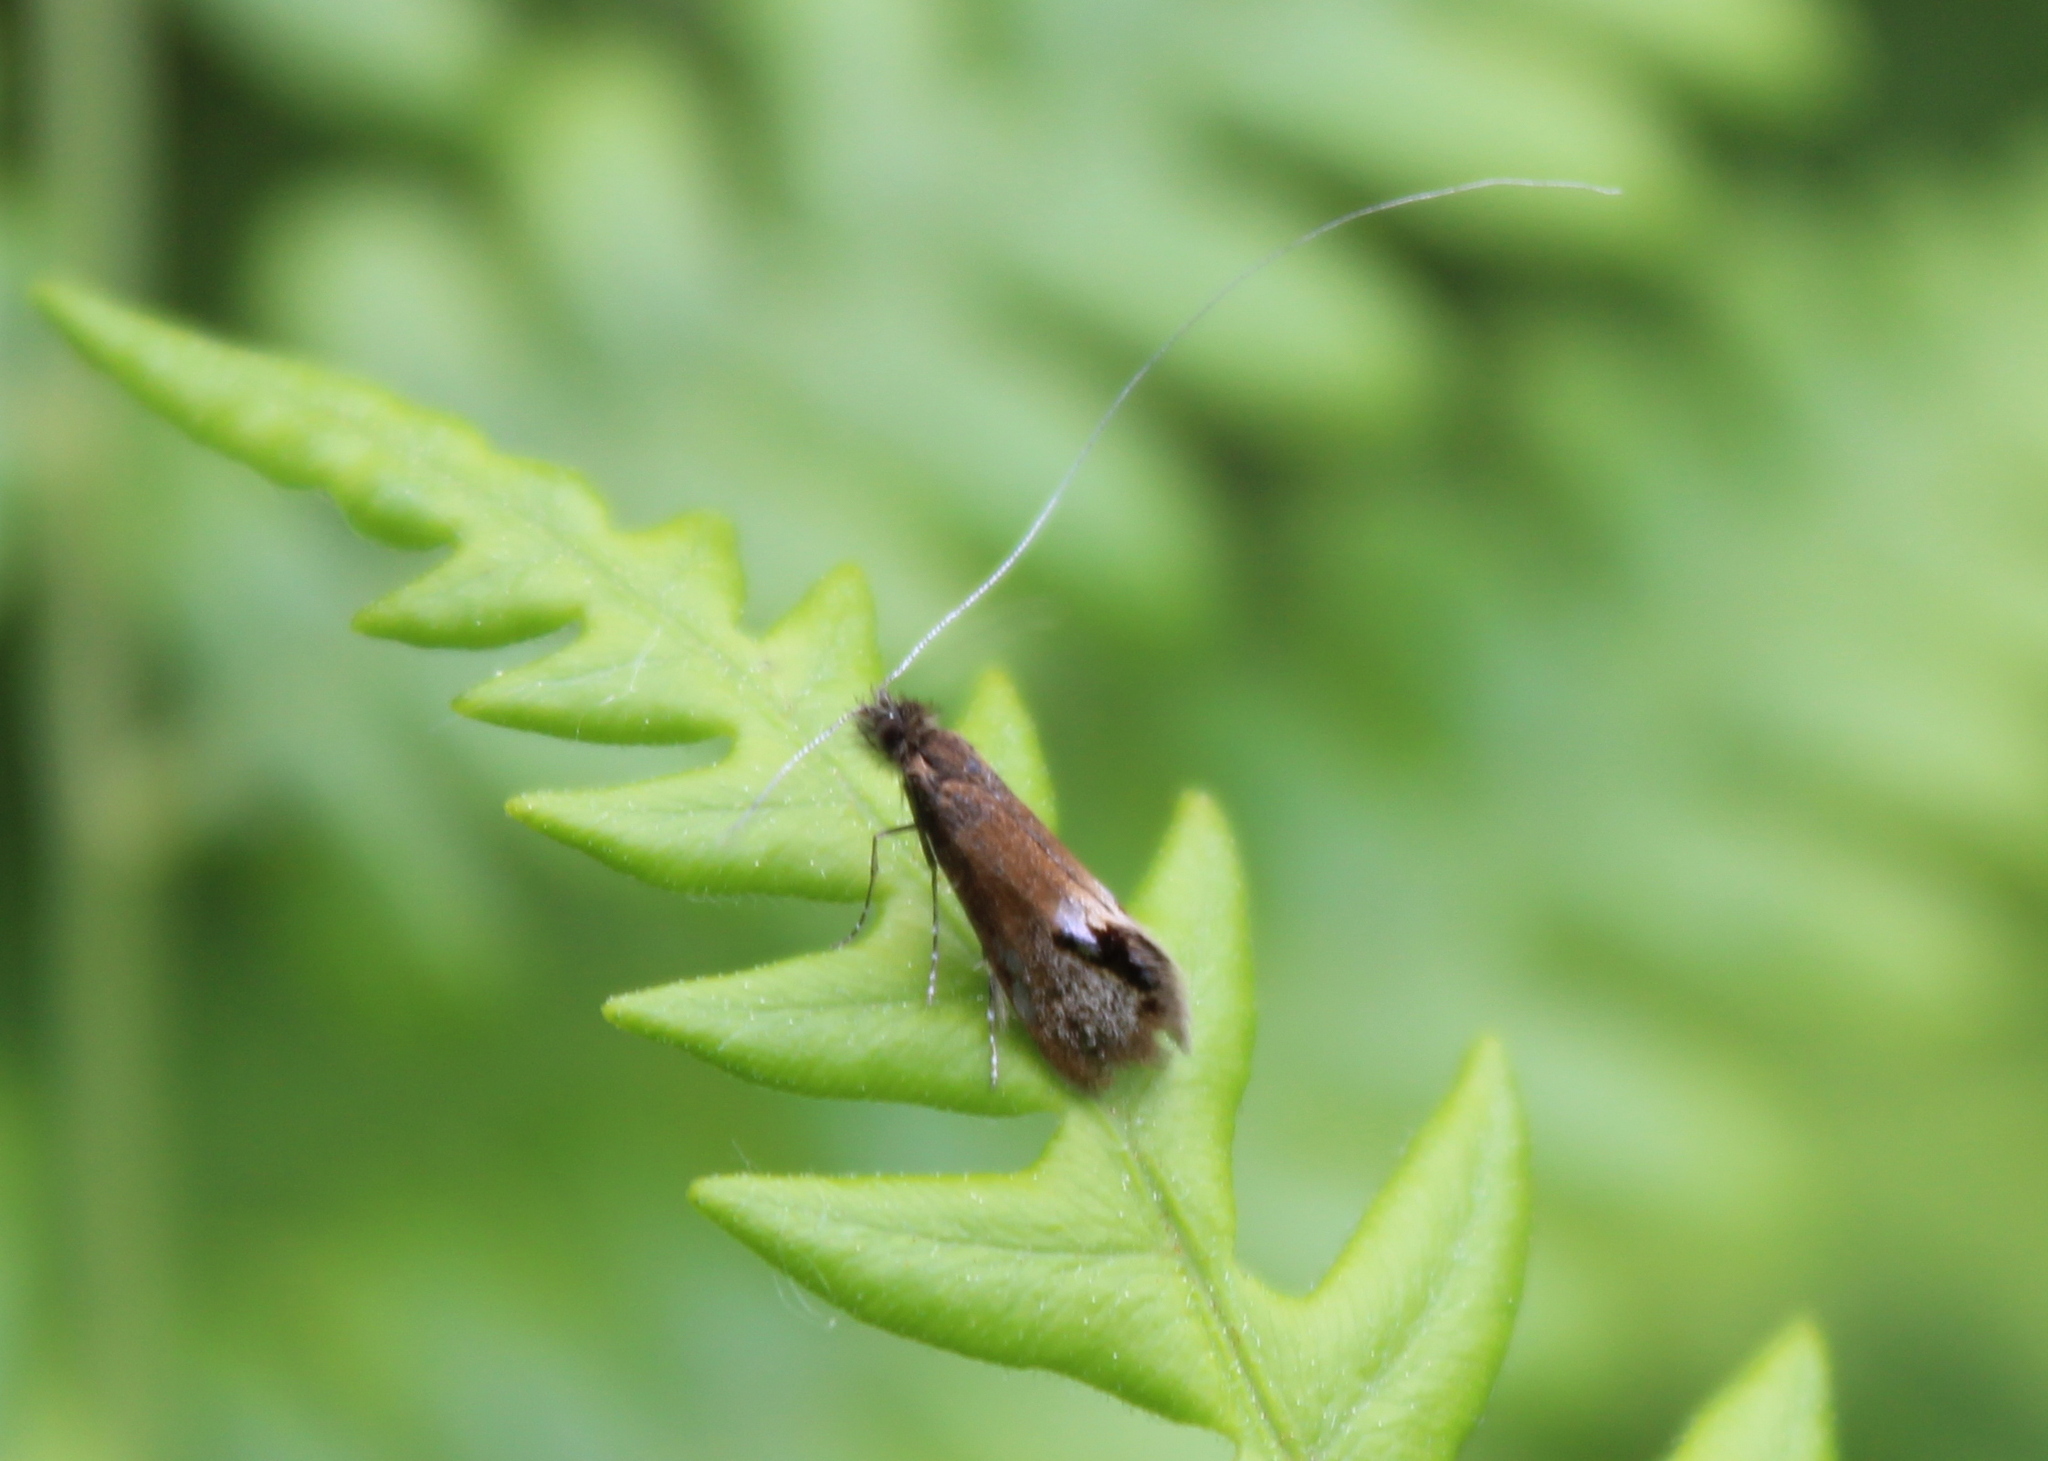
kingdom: Animalia
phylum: Arthropoda
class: Insecta
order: Lepidoptera
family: Adelidae
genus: Adela
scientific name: Adela ridingsella
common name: Ridings' fairy moth
